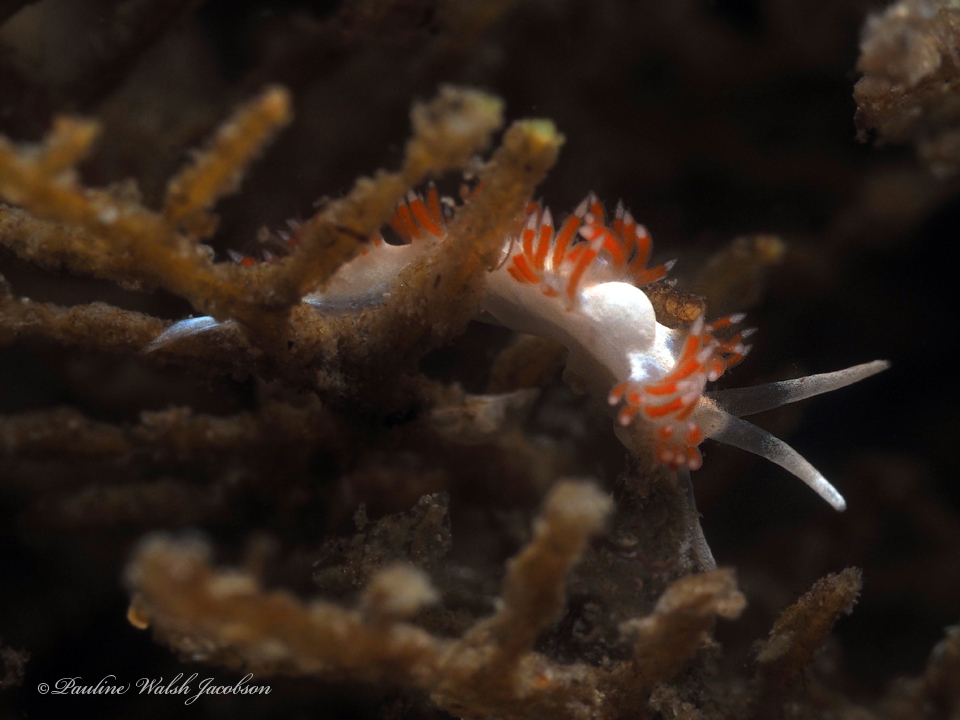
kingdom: Animalia
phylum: Mollusca
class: Gastropoda
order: Nudibranchia
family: Flabellinidae
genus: Flabellina
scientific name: Flabellina dushia
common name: Dushia flabellina
